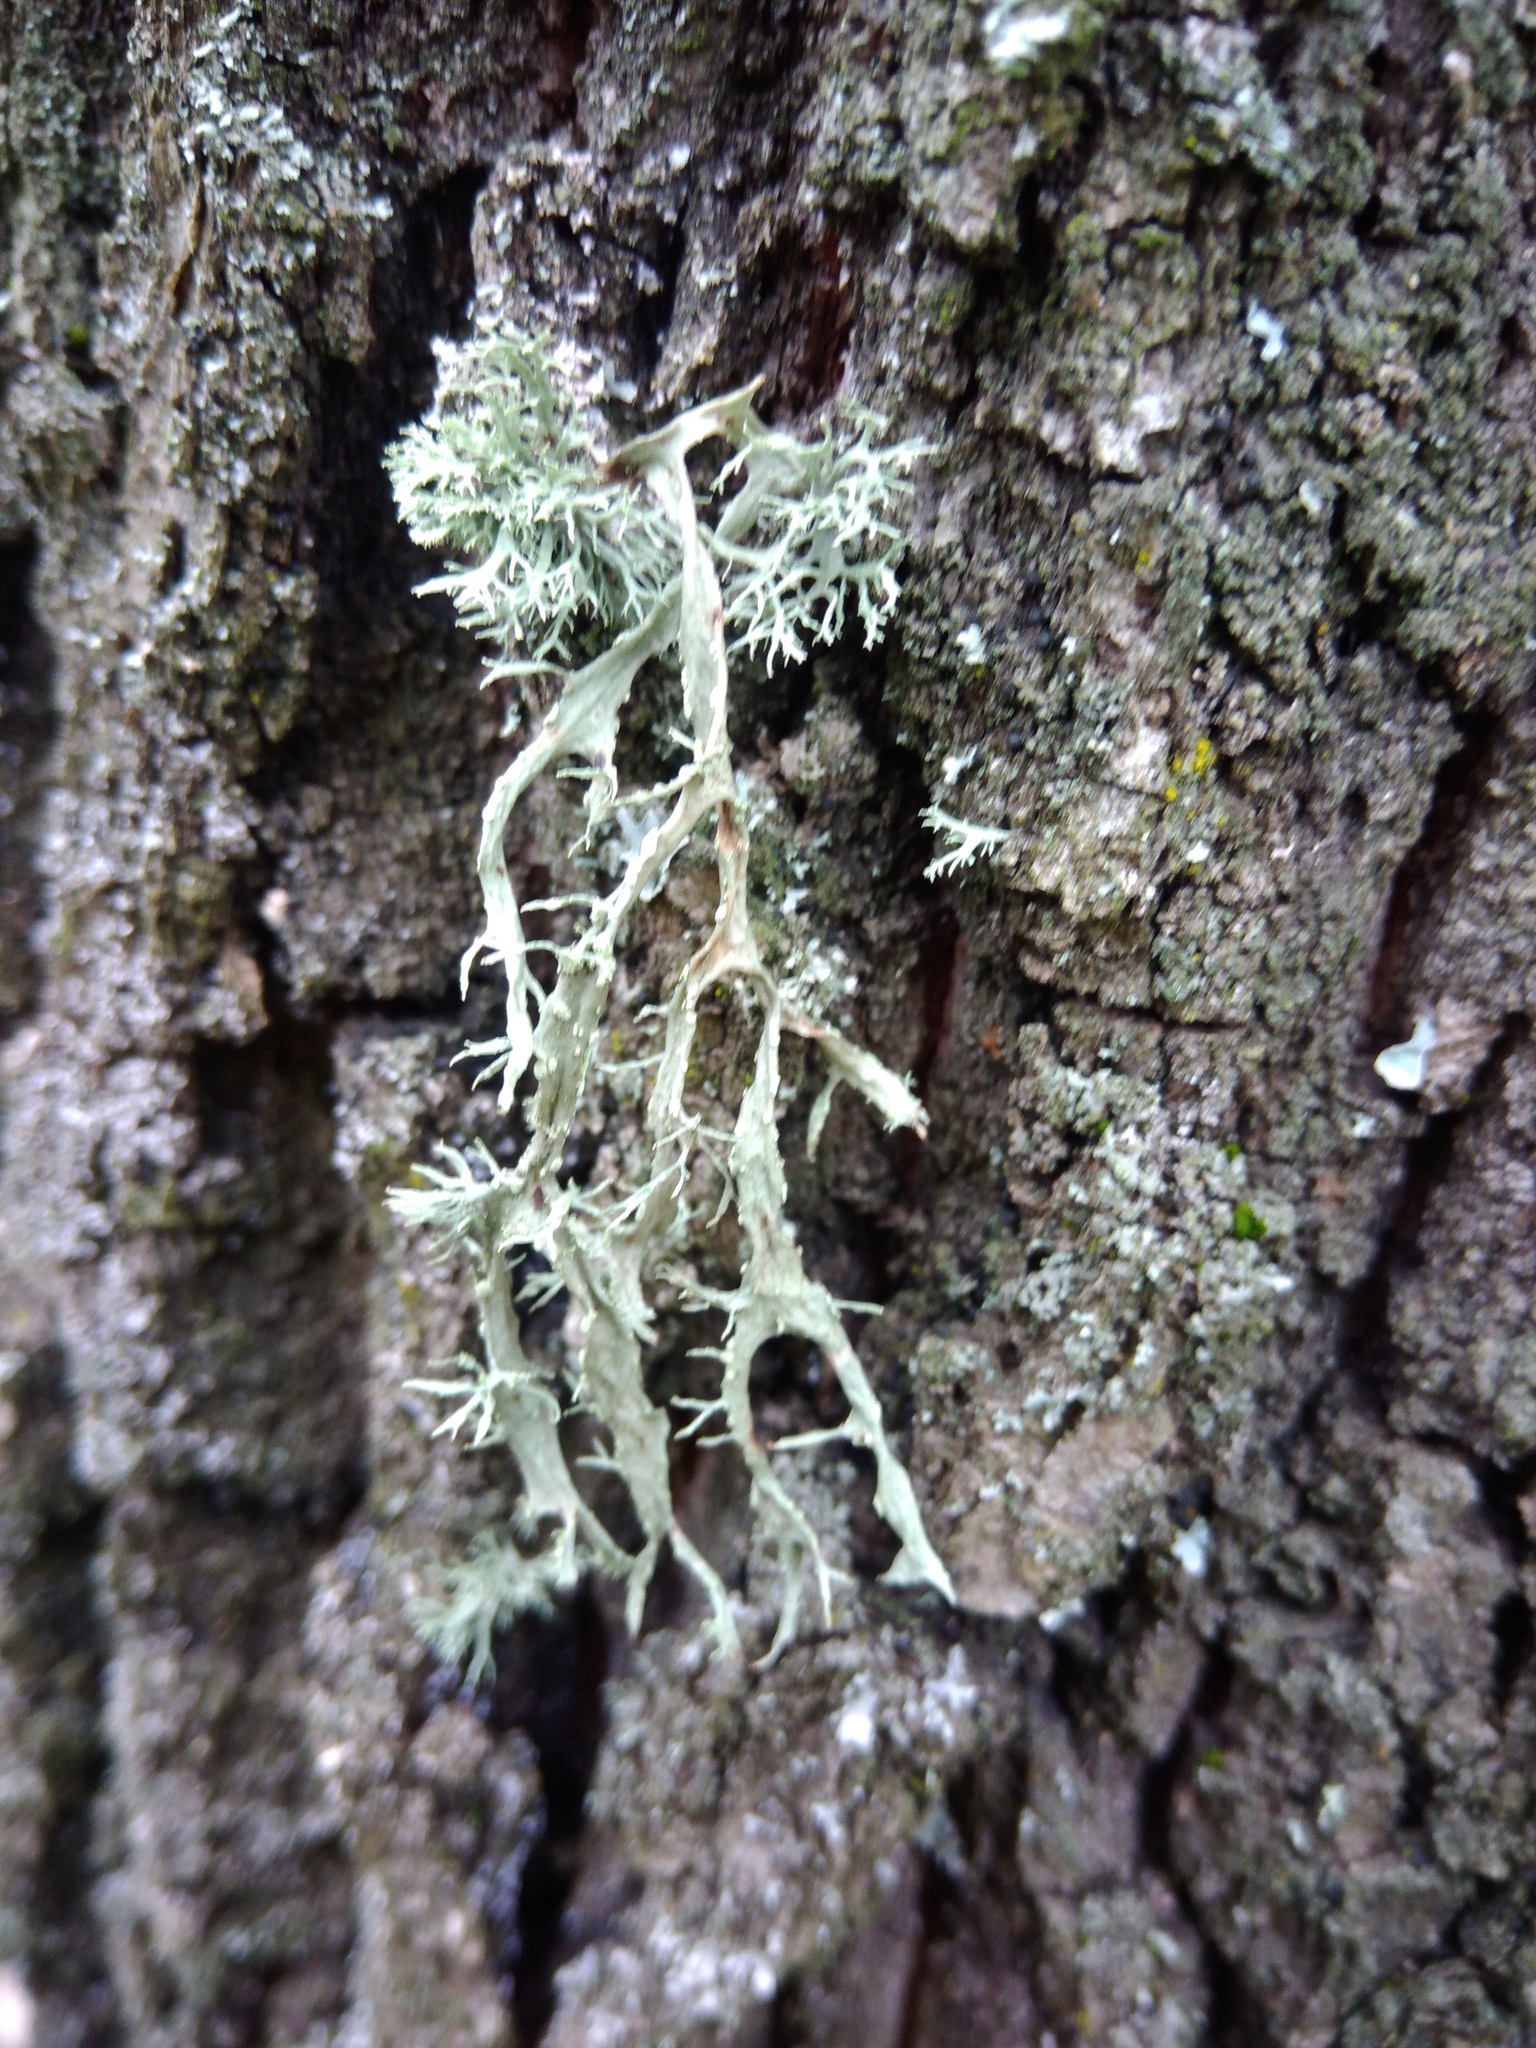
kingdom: Fungi
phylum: Ascomycota
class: Lecanoromycetes
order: Lecanorales
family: Ramalinaceae
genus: Ramalina
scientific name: Ramalina farinacea
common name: Farinose cartilage lichen
